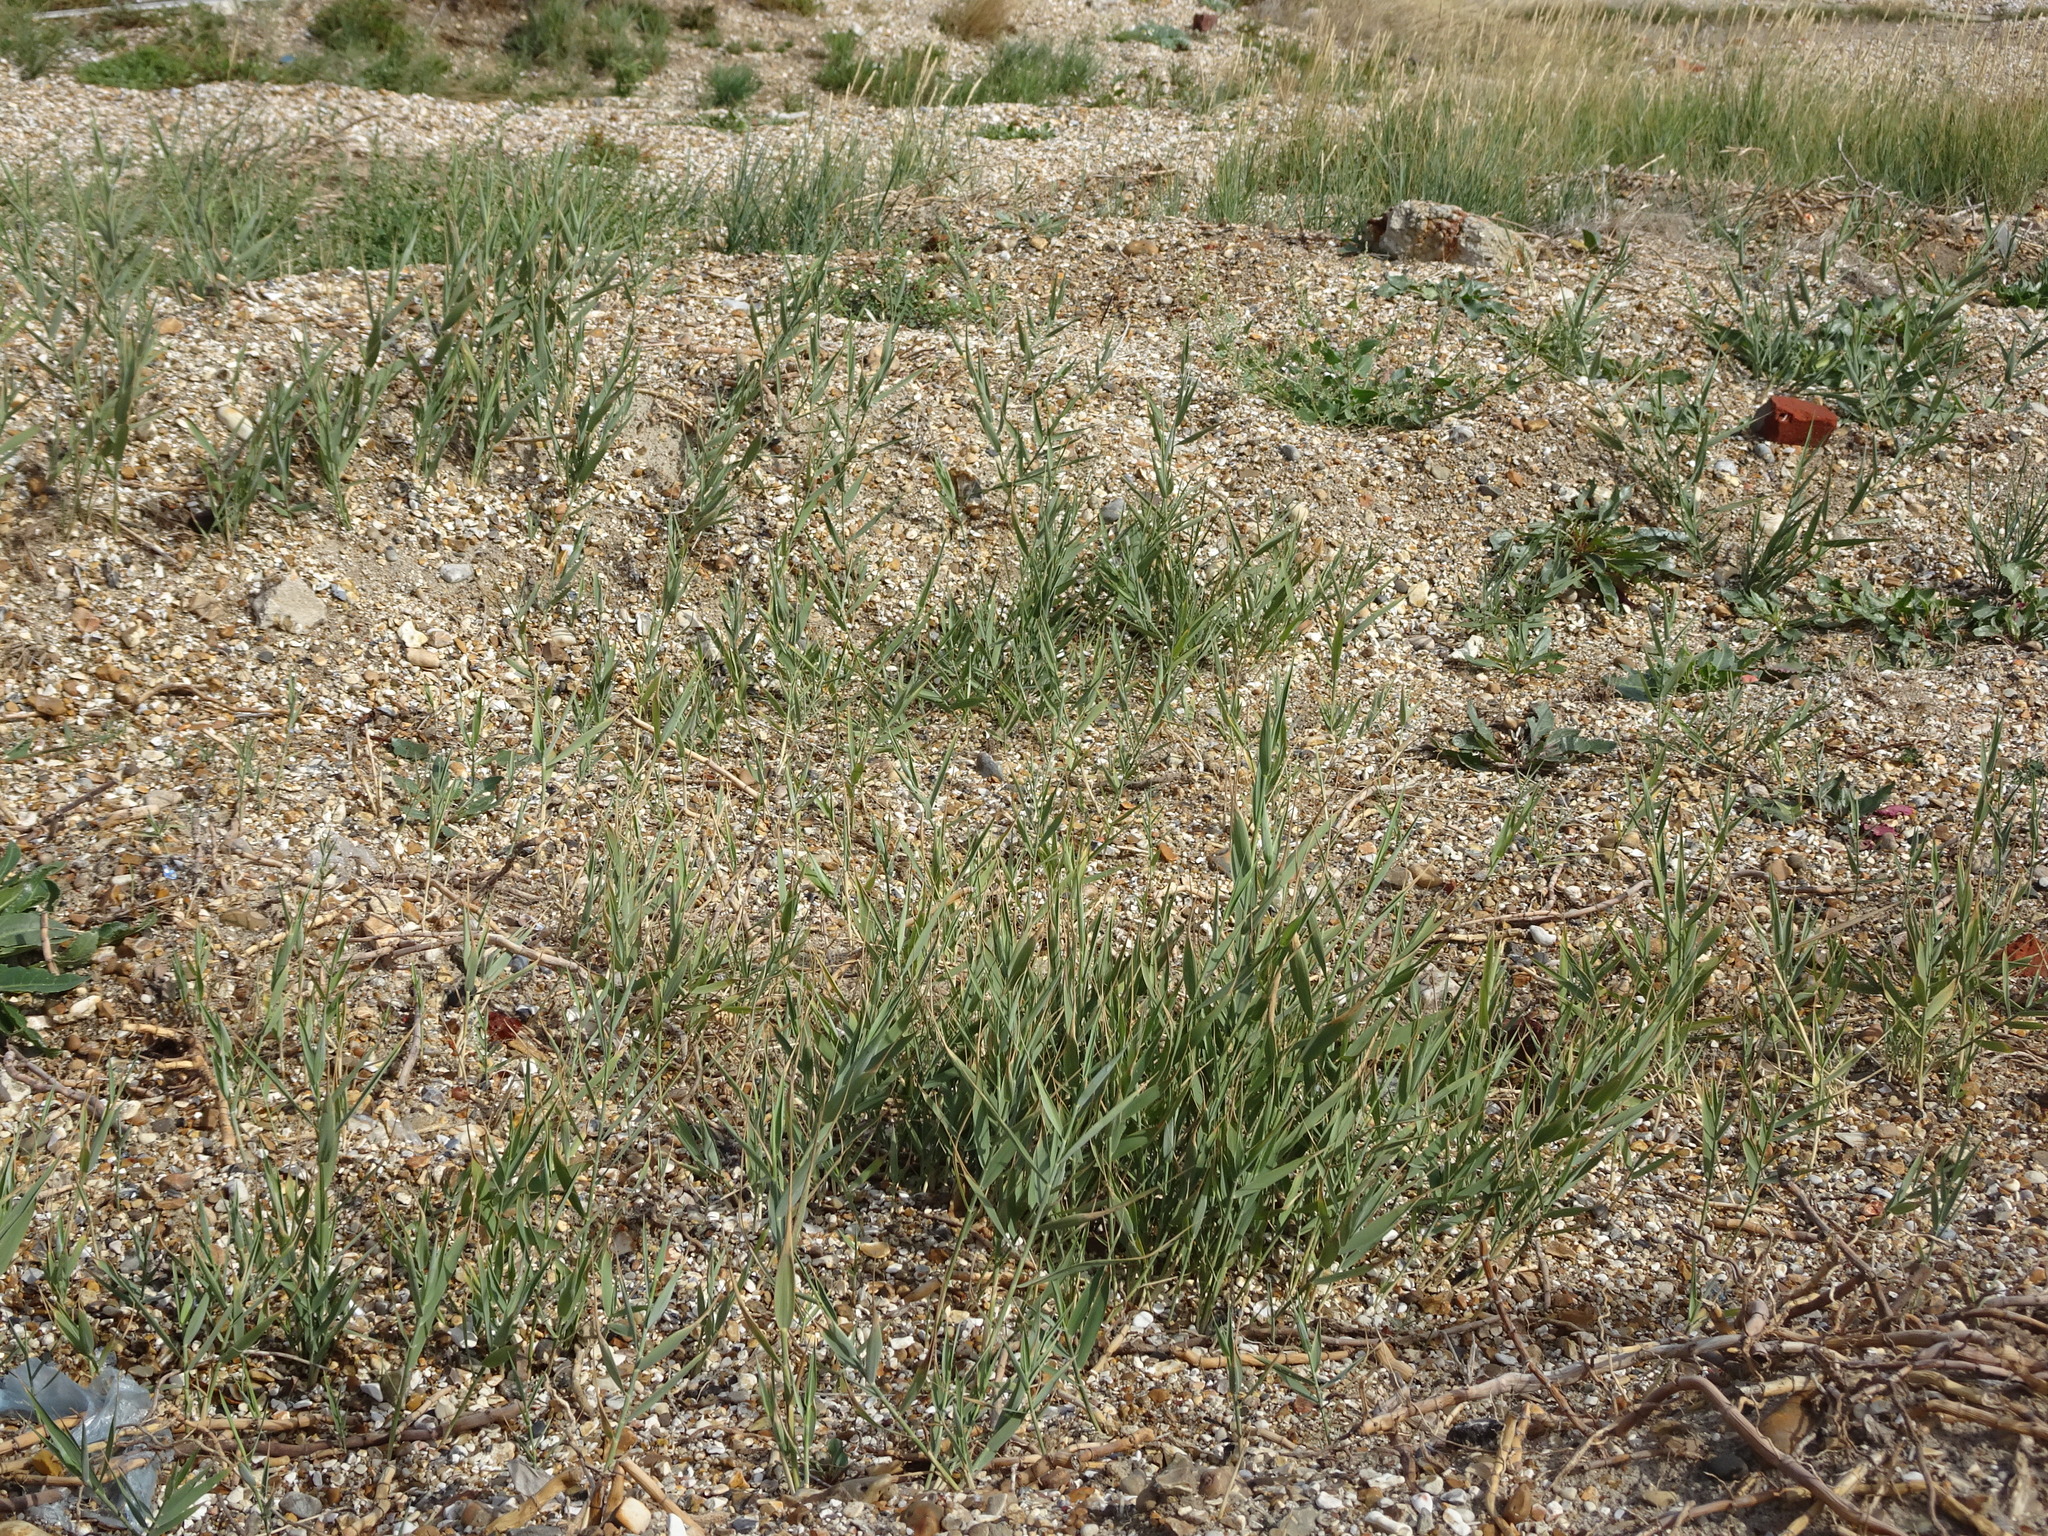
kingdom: Plantae
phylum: Tracheophyta
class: Liliopsida
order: Poales
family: Poaceae
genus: Phragmites
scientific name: Phragmites australis
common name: Common reed
